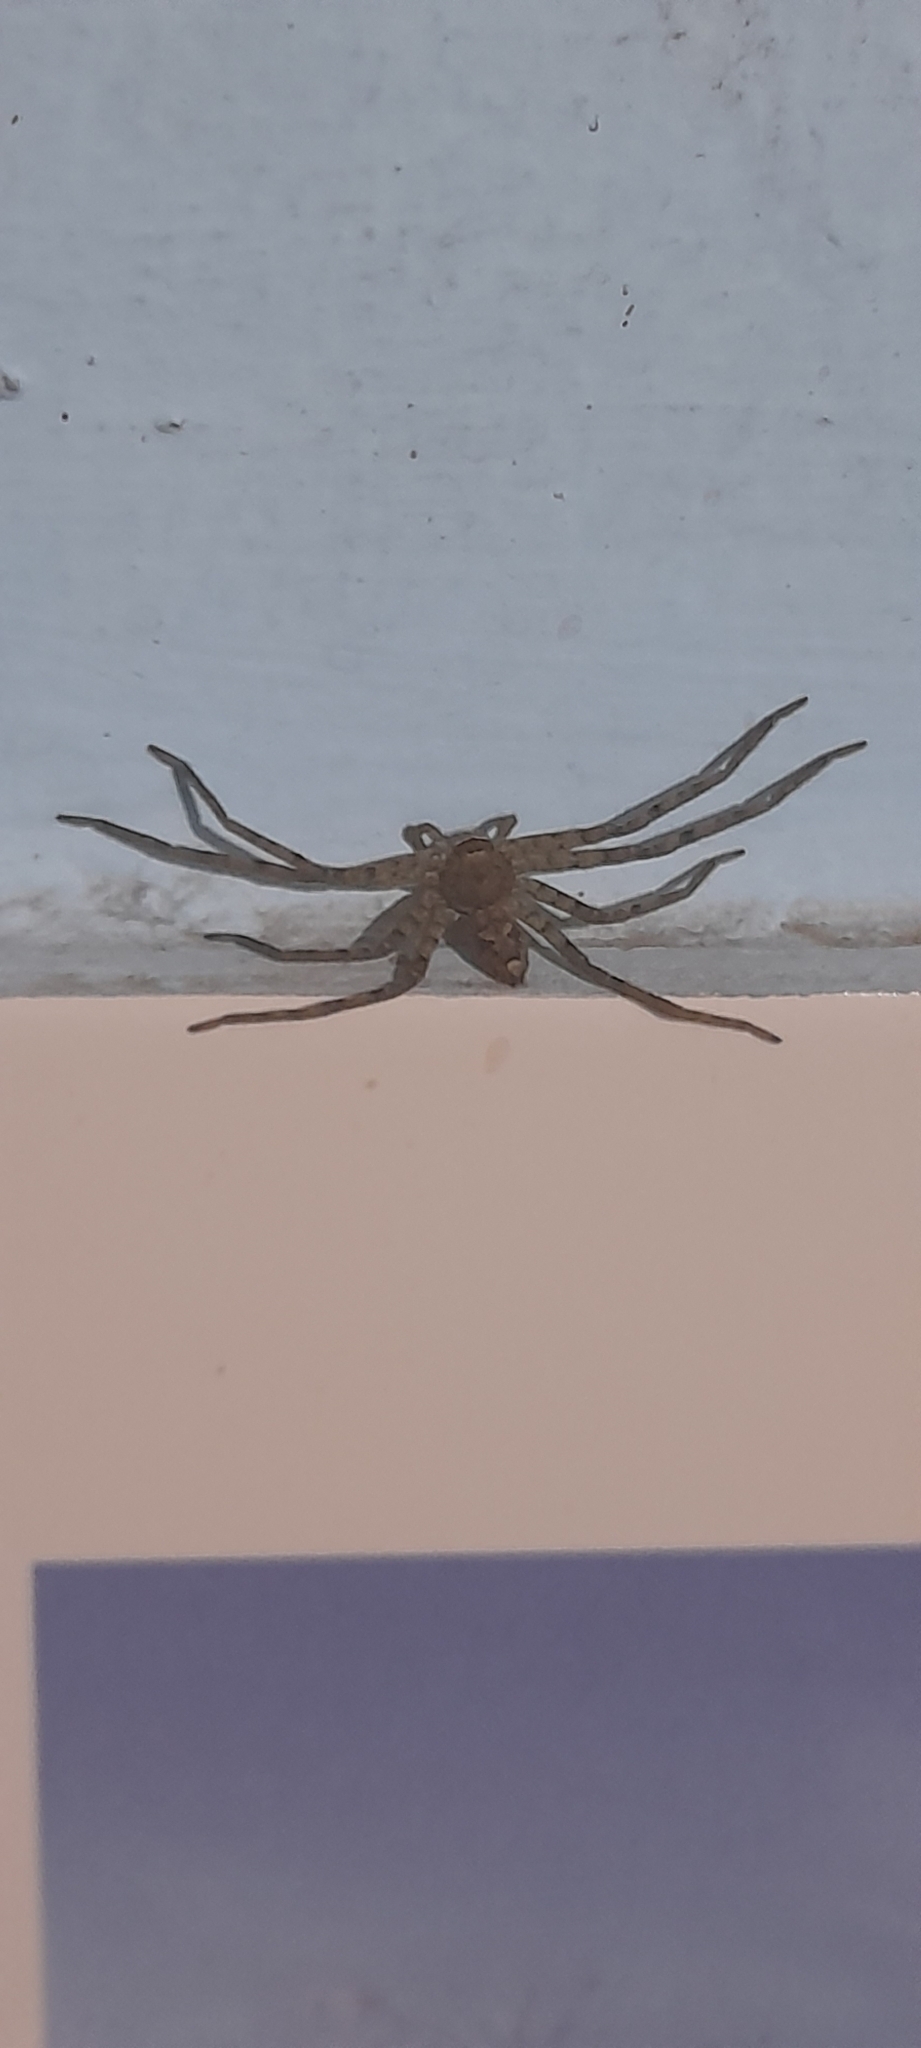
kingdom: Animalia
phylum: Arthropoda
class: Arachnida
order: Araneae
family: Sparassidae
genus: Heteropoda
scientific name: Heteropoda venatoria
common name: Huntsman spider
